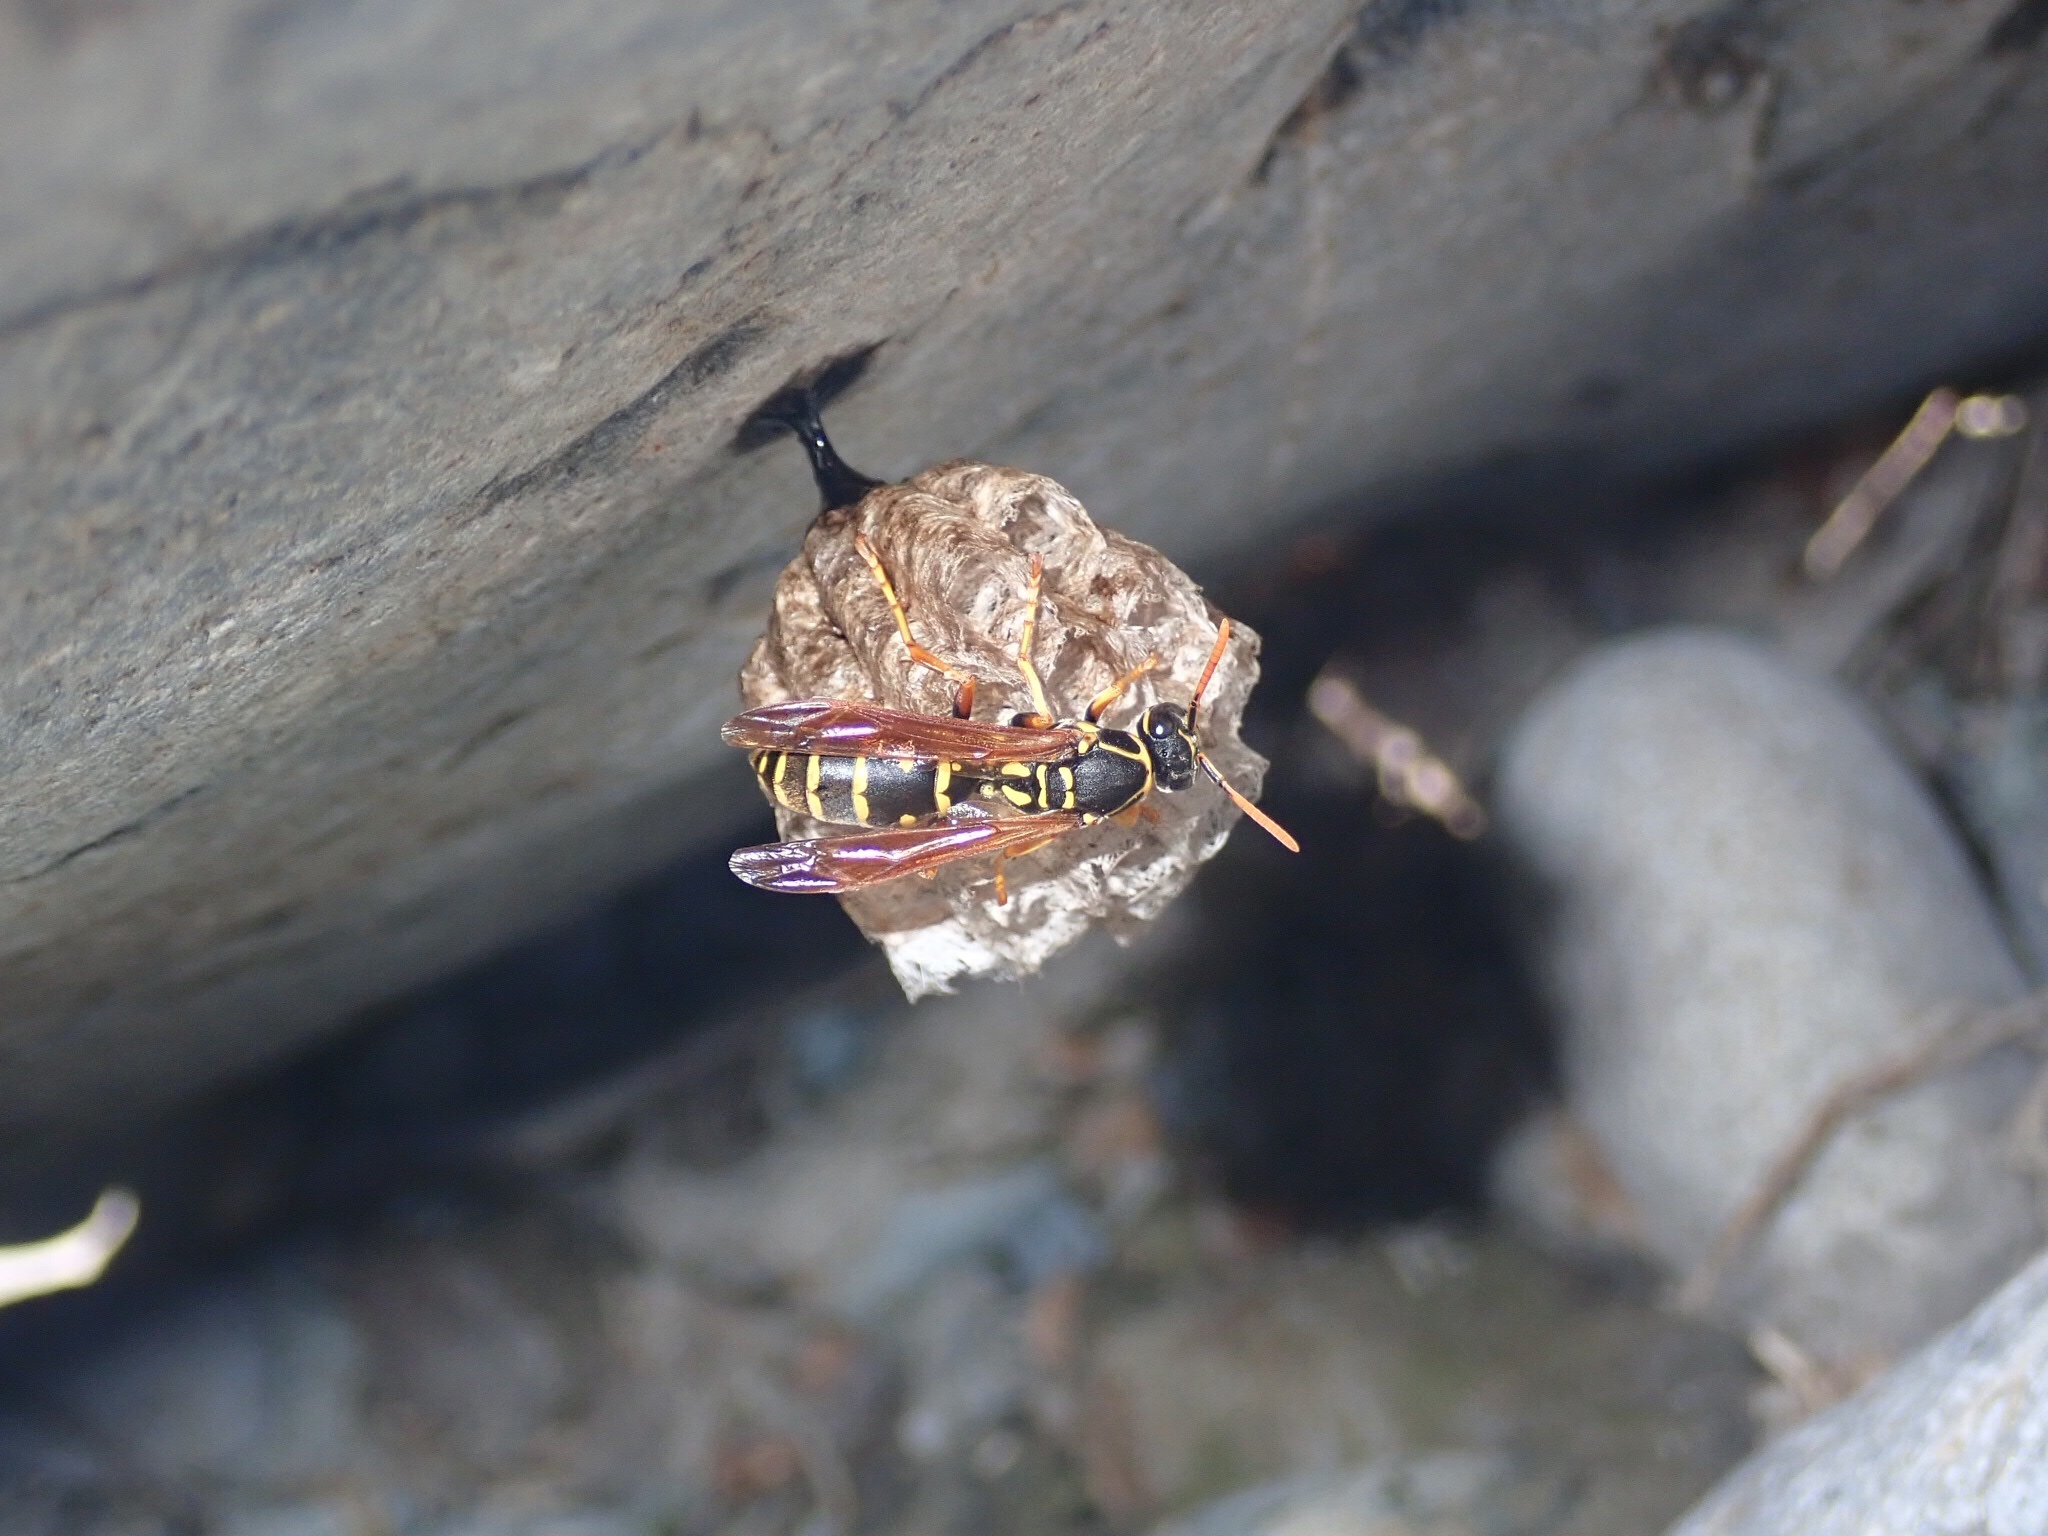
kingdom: Animalia
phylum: Arthropoda
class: Insecta
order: Hymenoptera
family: Eumenidae
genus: Polistes
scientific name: Polistes chinensis
